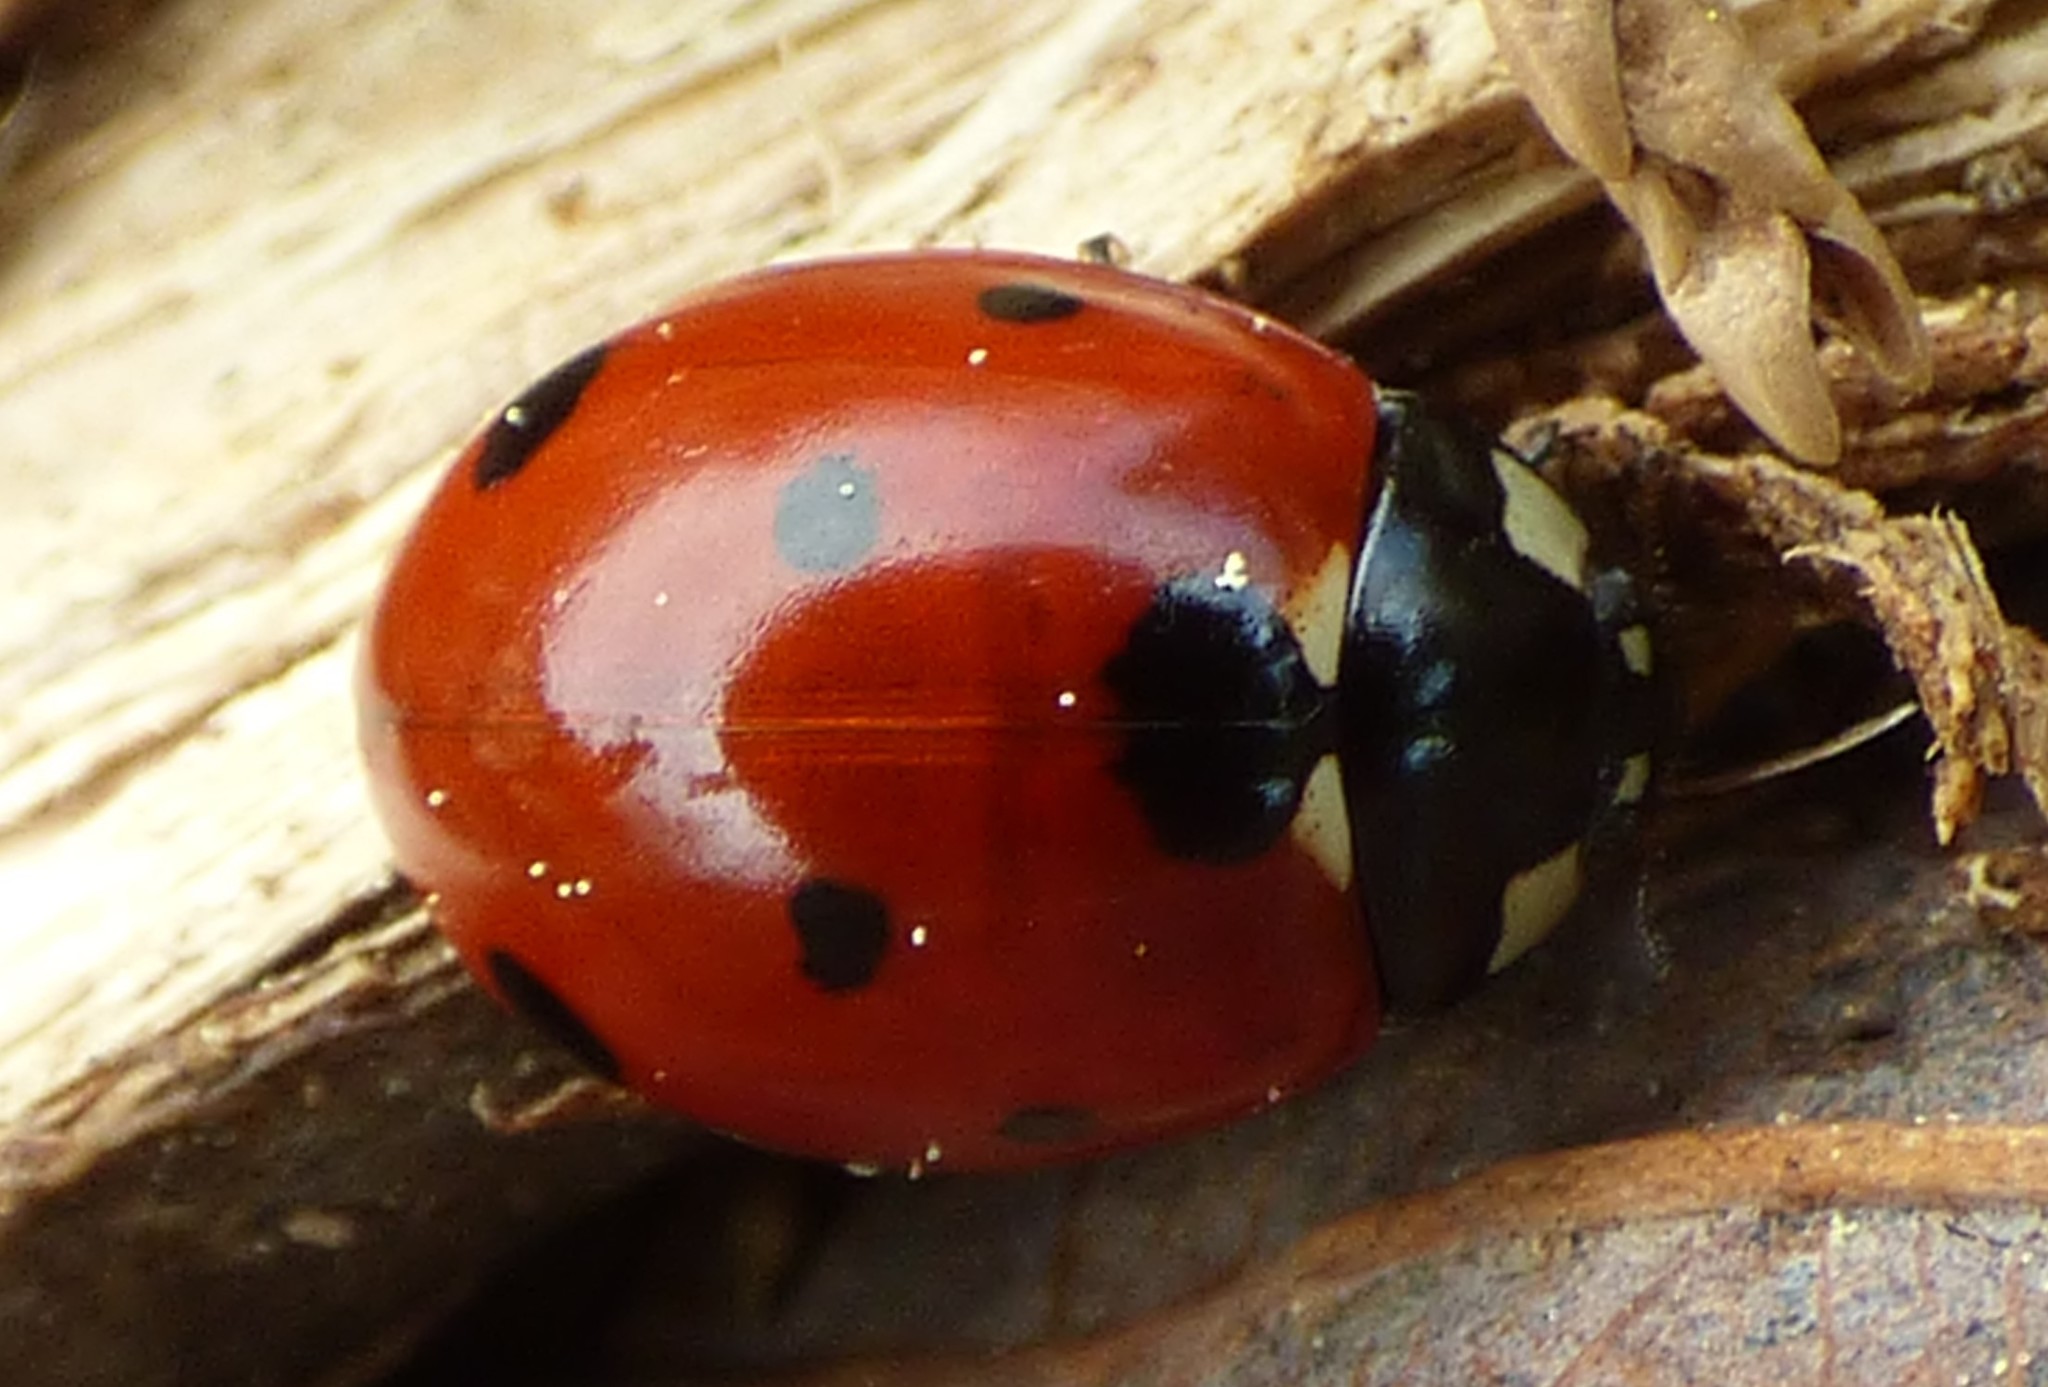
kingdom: Animalia
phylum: Arthropoda
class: Insecta
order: Coleoptera
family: Coccinellidae
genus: Coccinella
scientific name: Coccinella septempunctata
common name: Sevenspotted lady beetle
